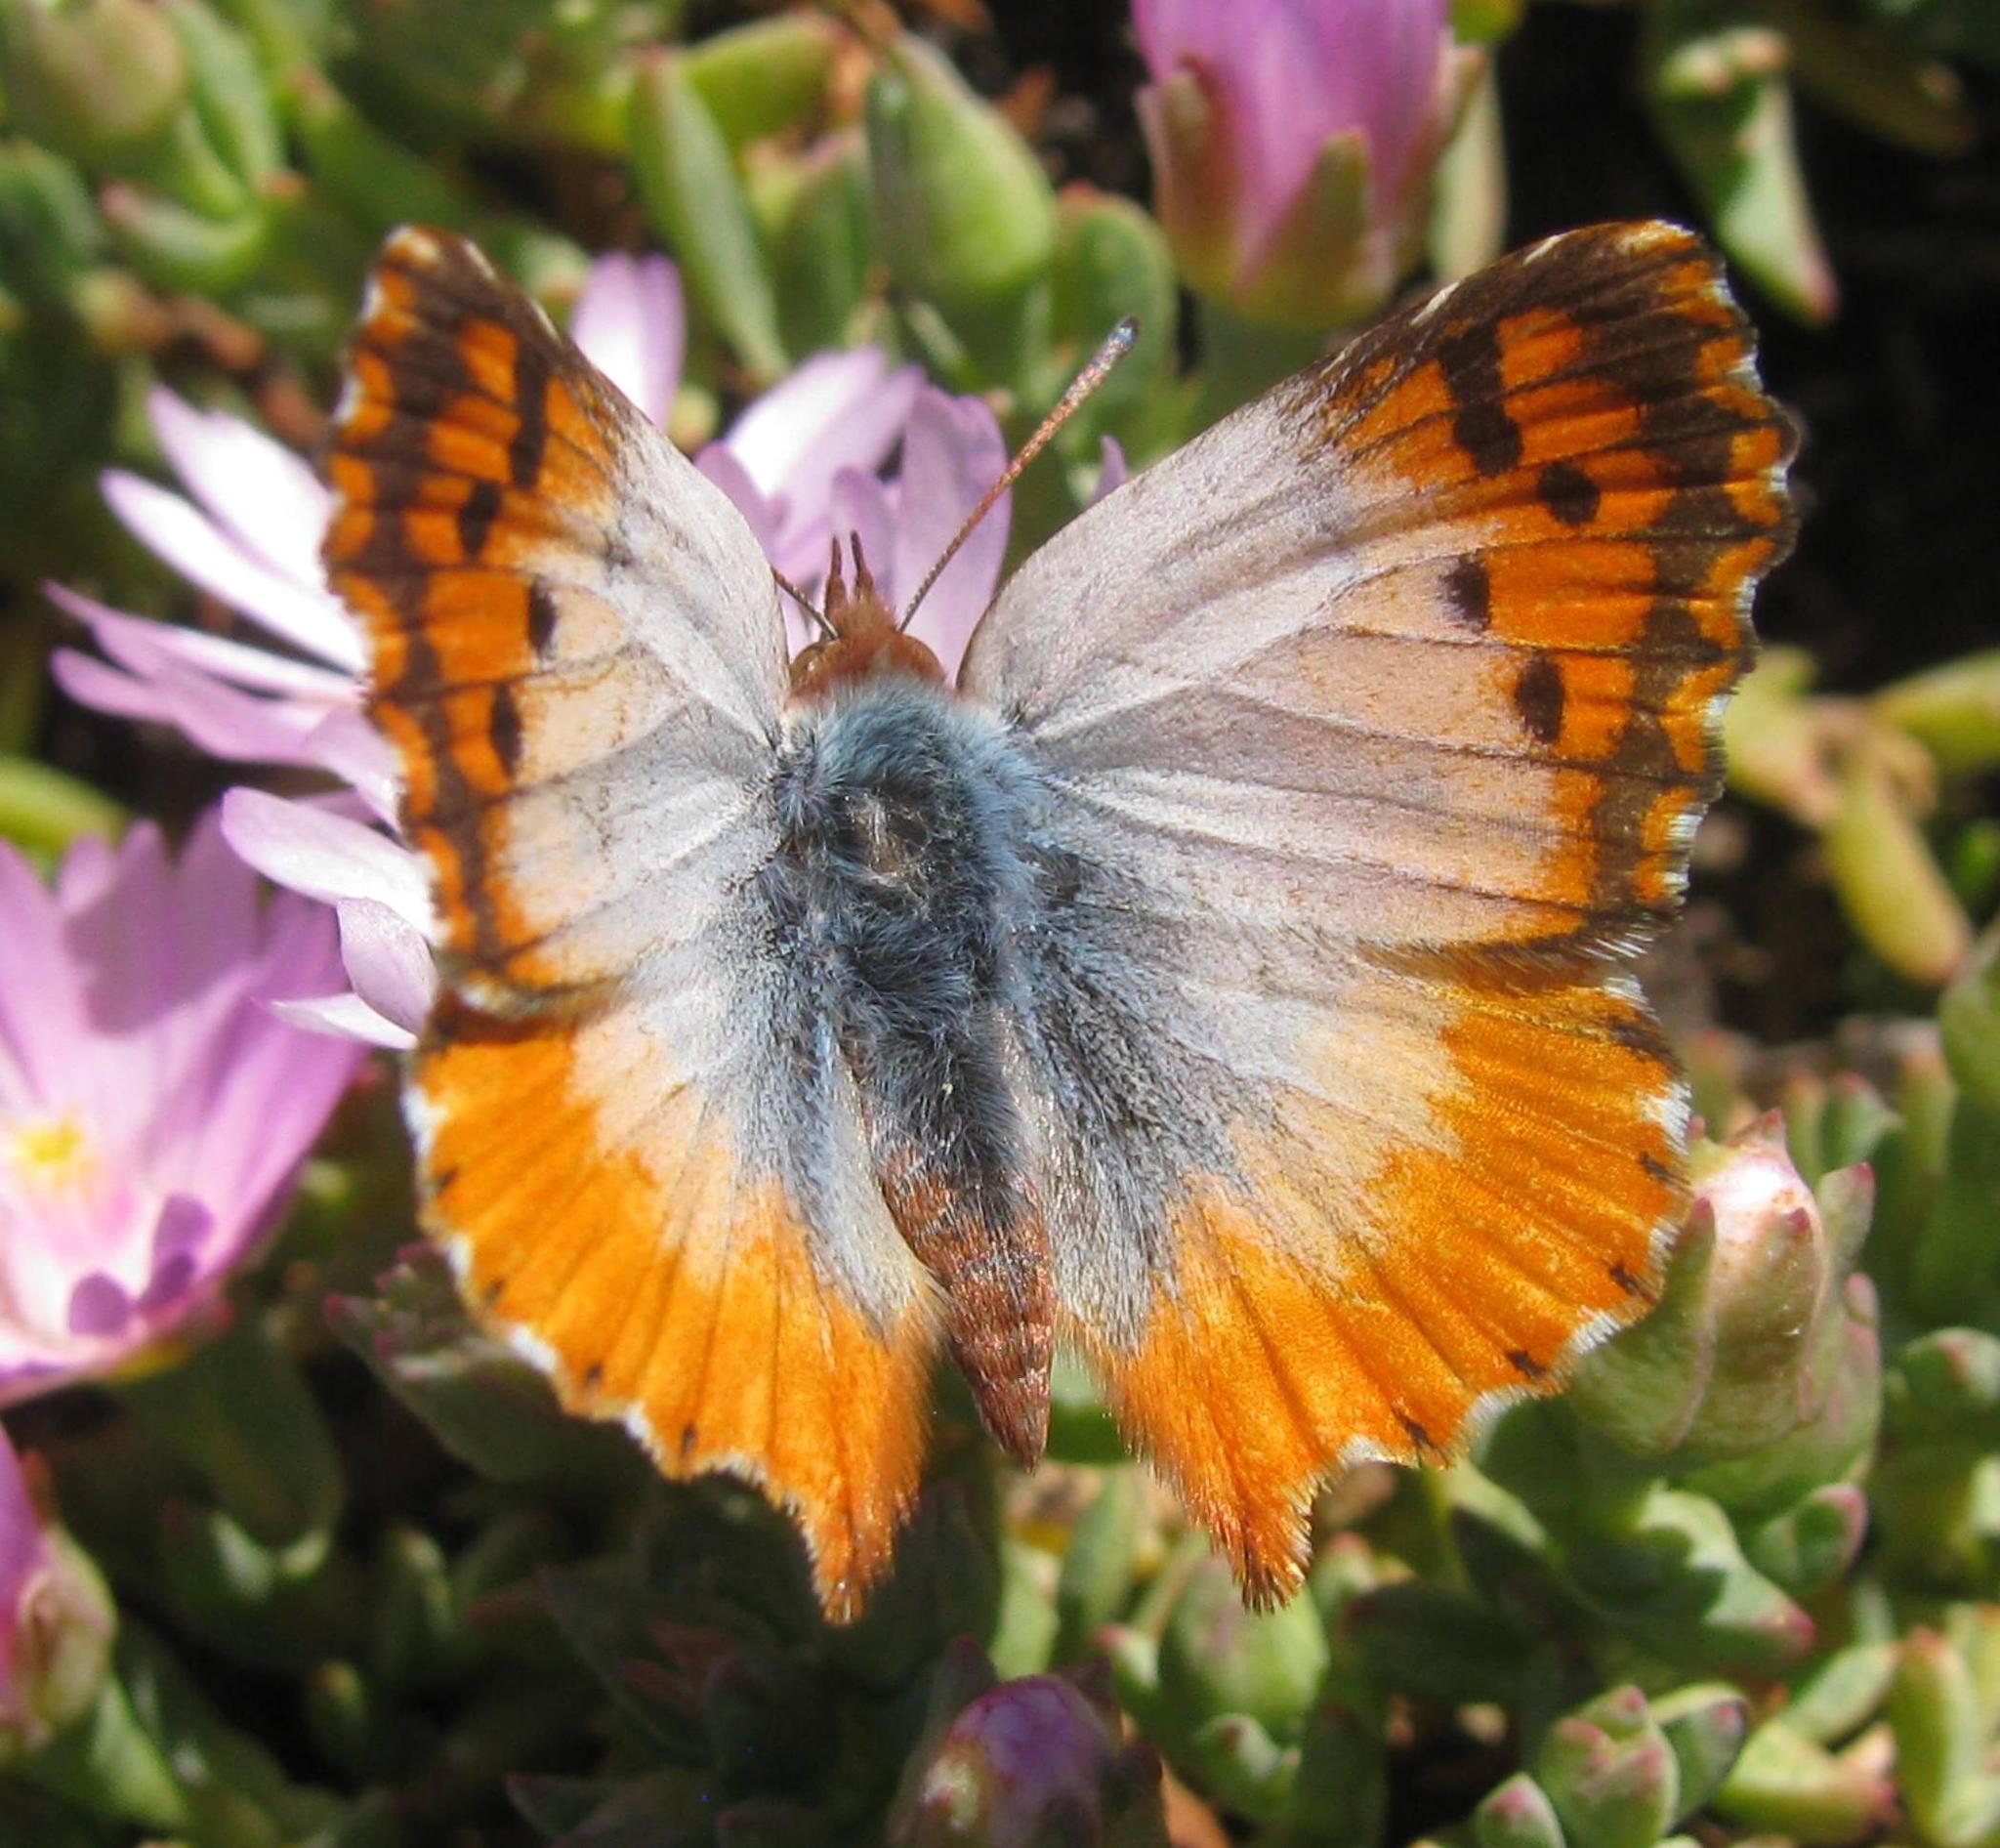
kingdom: Animalia
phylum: Arthropoda
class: Insecta
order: Lepidoptera
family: Lycaenidae
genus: Chrysoritis
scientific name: Chrysoritis rileyi
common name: Glitter opal
